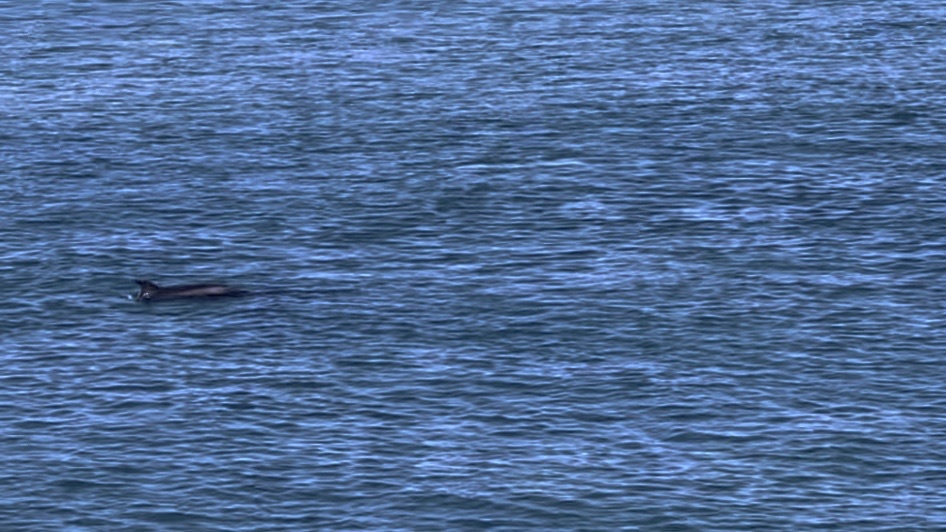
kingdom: Animalia
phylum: Chordata
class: Mammalia
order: Cetacea
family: Delphinidae
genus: Tursiops
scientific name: Tursiops truncatus
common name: Bottlenose dolphin
